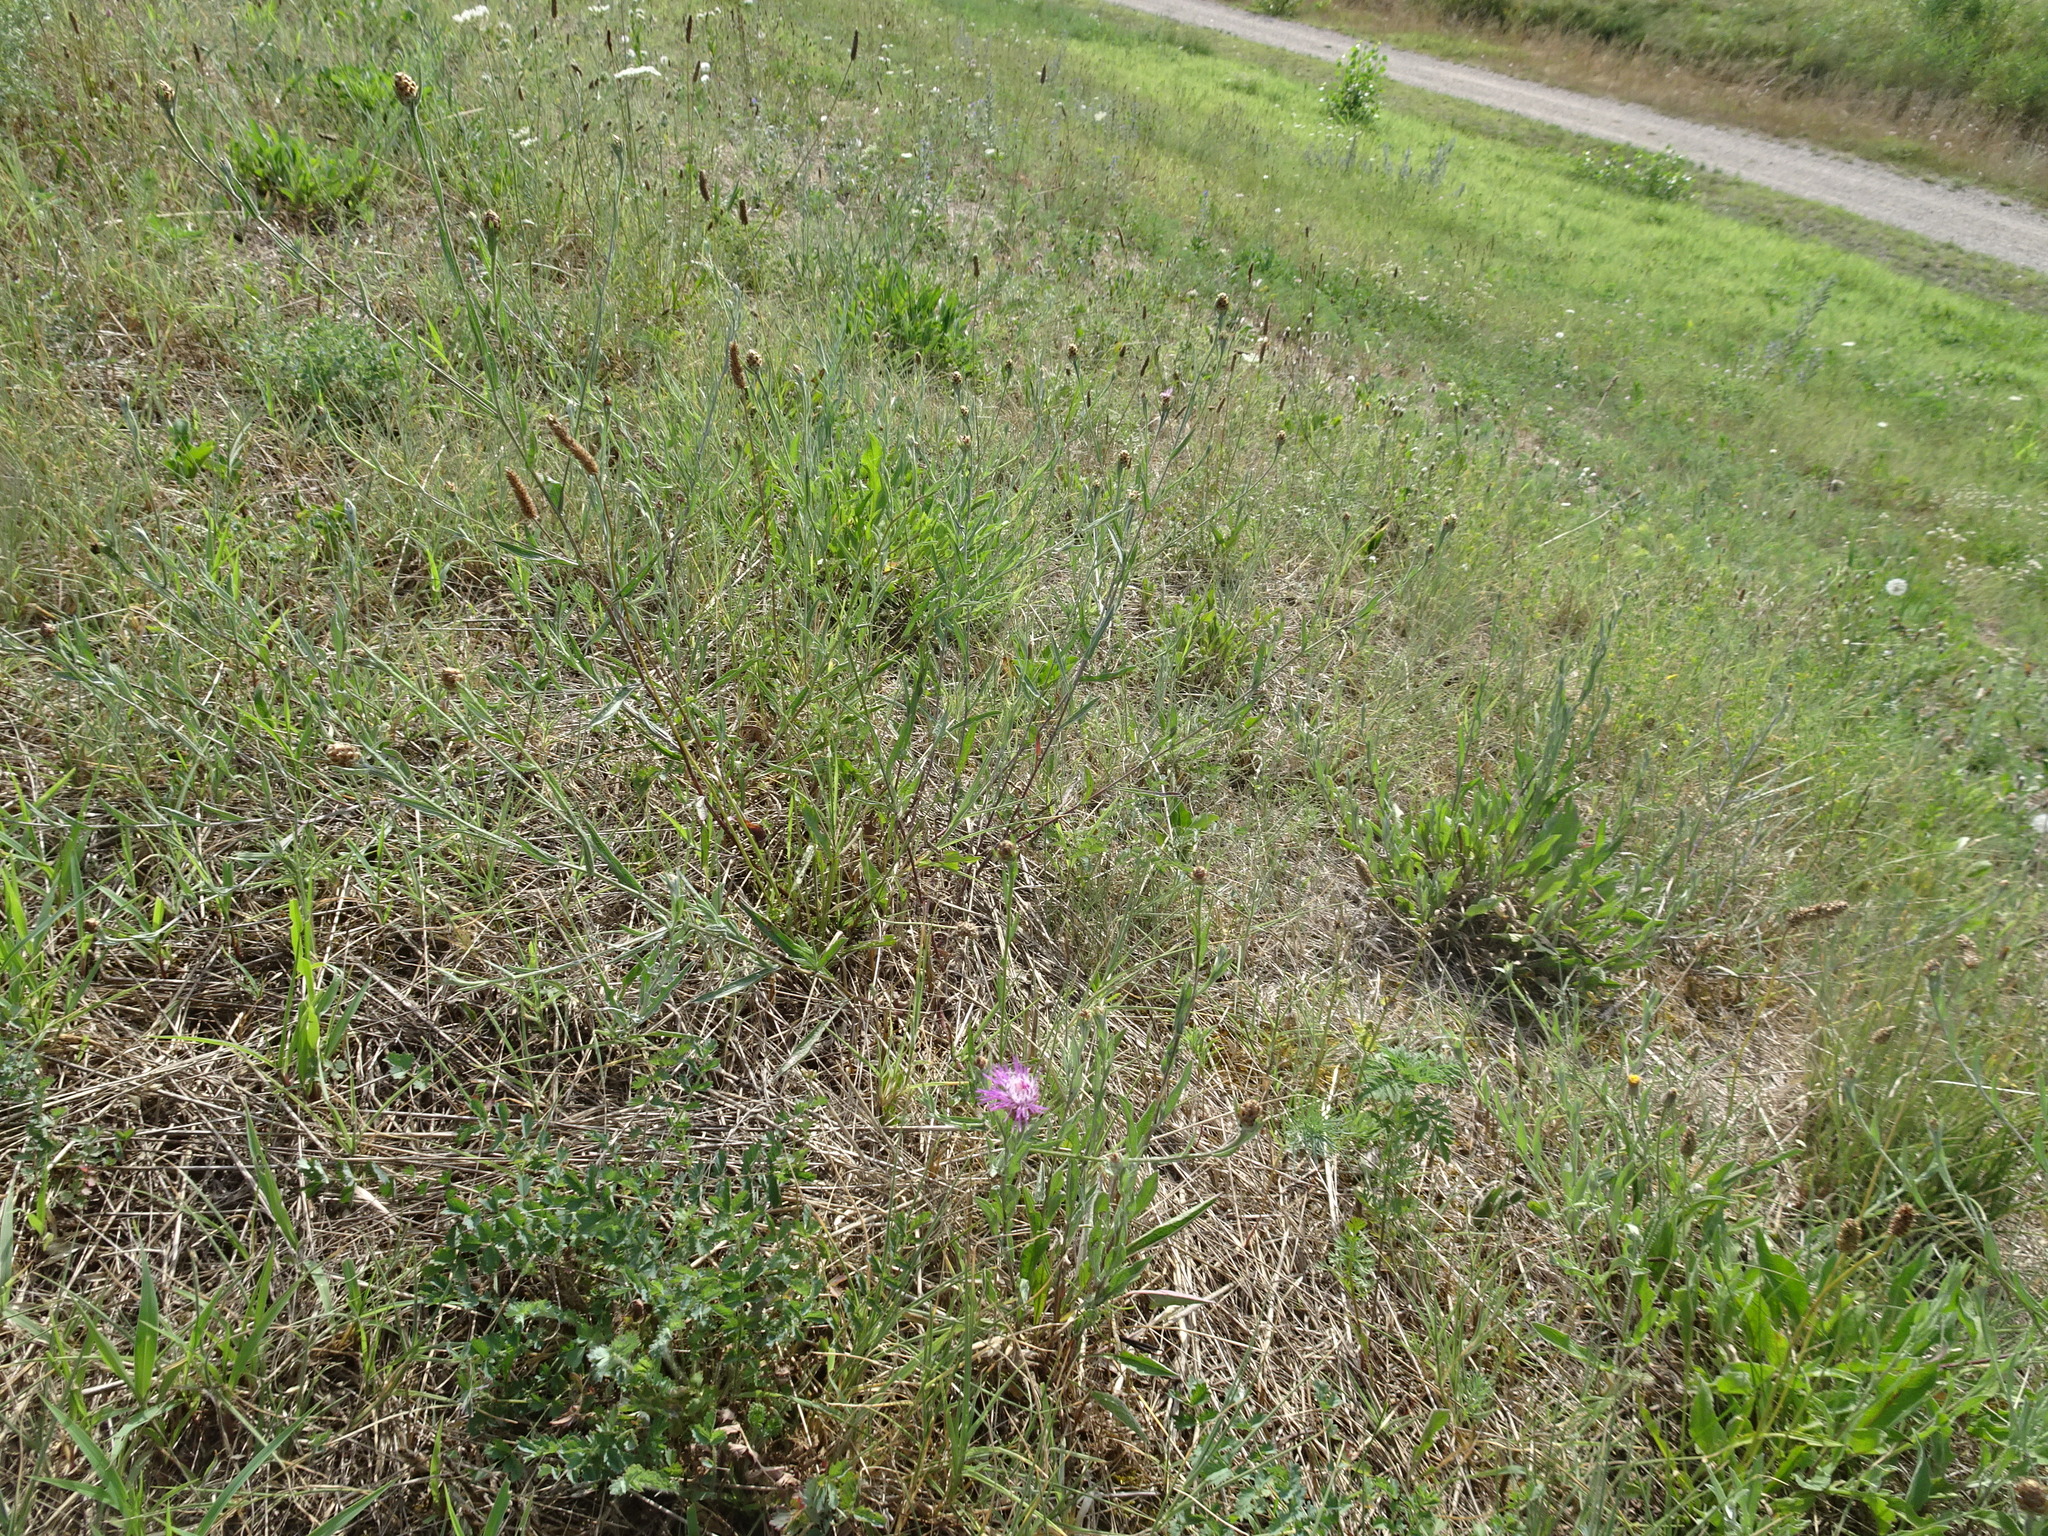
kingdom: Plantae
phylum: Tracheophyta
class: Magnoliopsida
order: Asterales
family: Asteraceae
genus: Centaurea
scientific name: Centaurea jacea
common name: Brown knapweed
